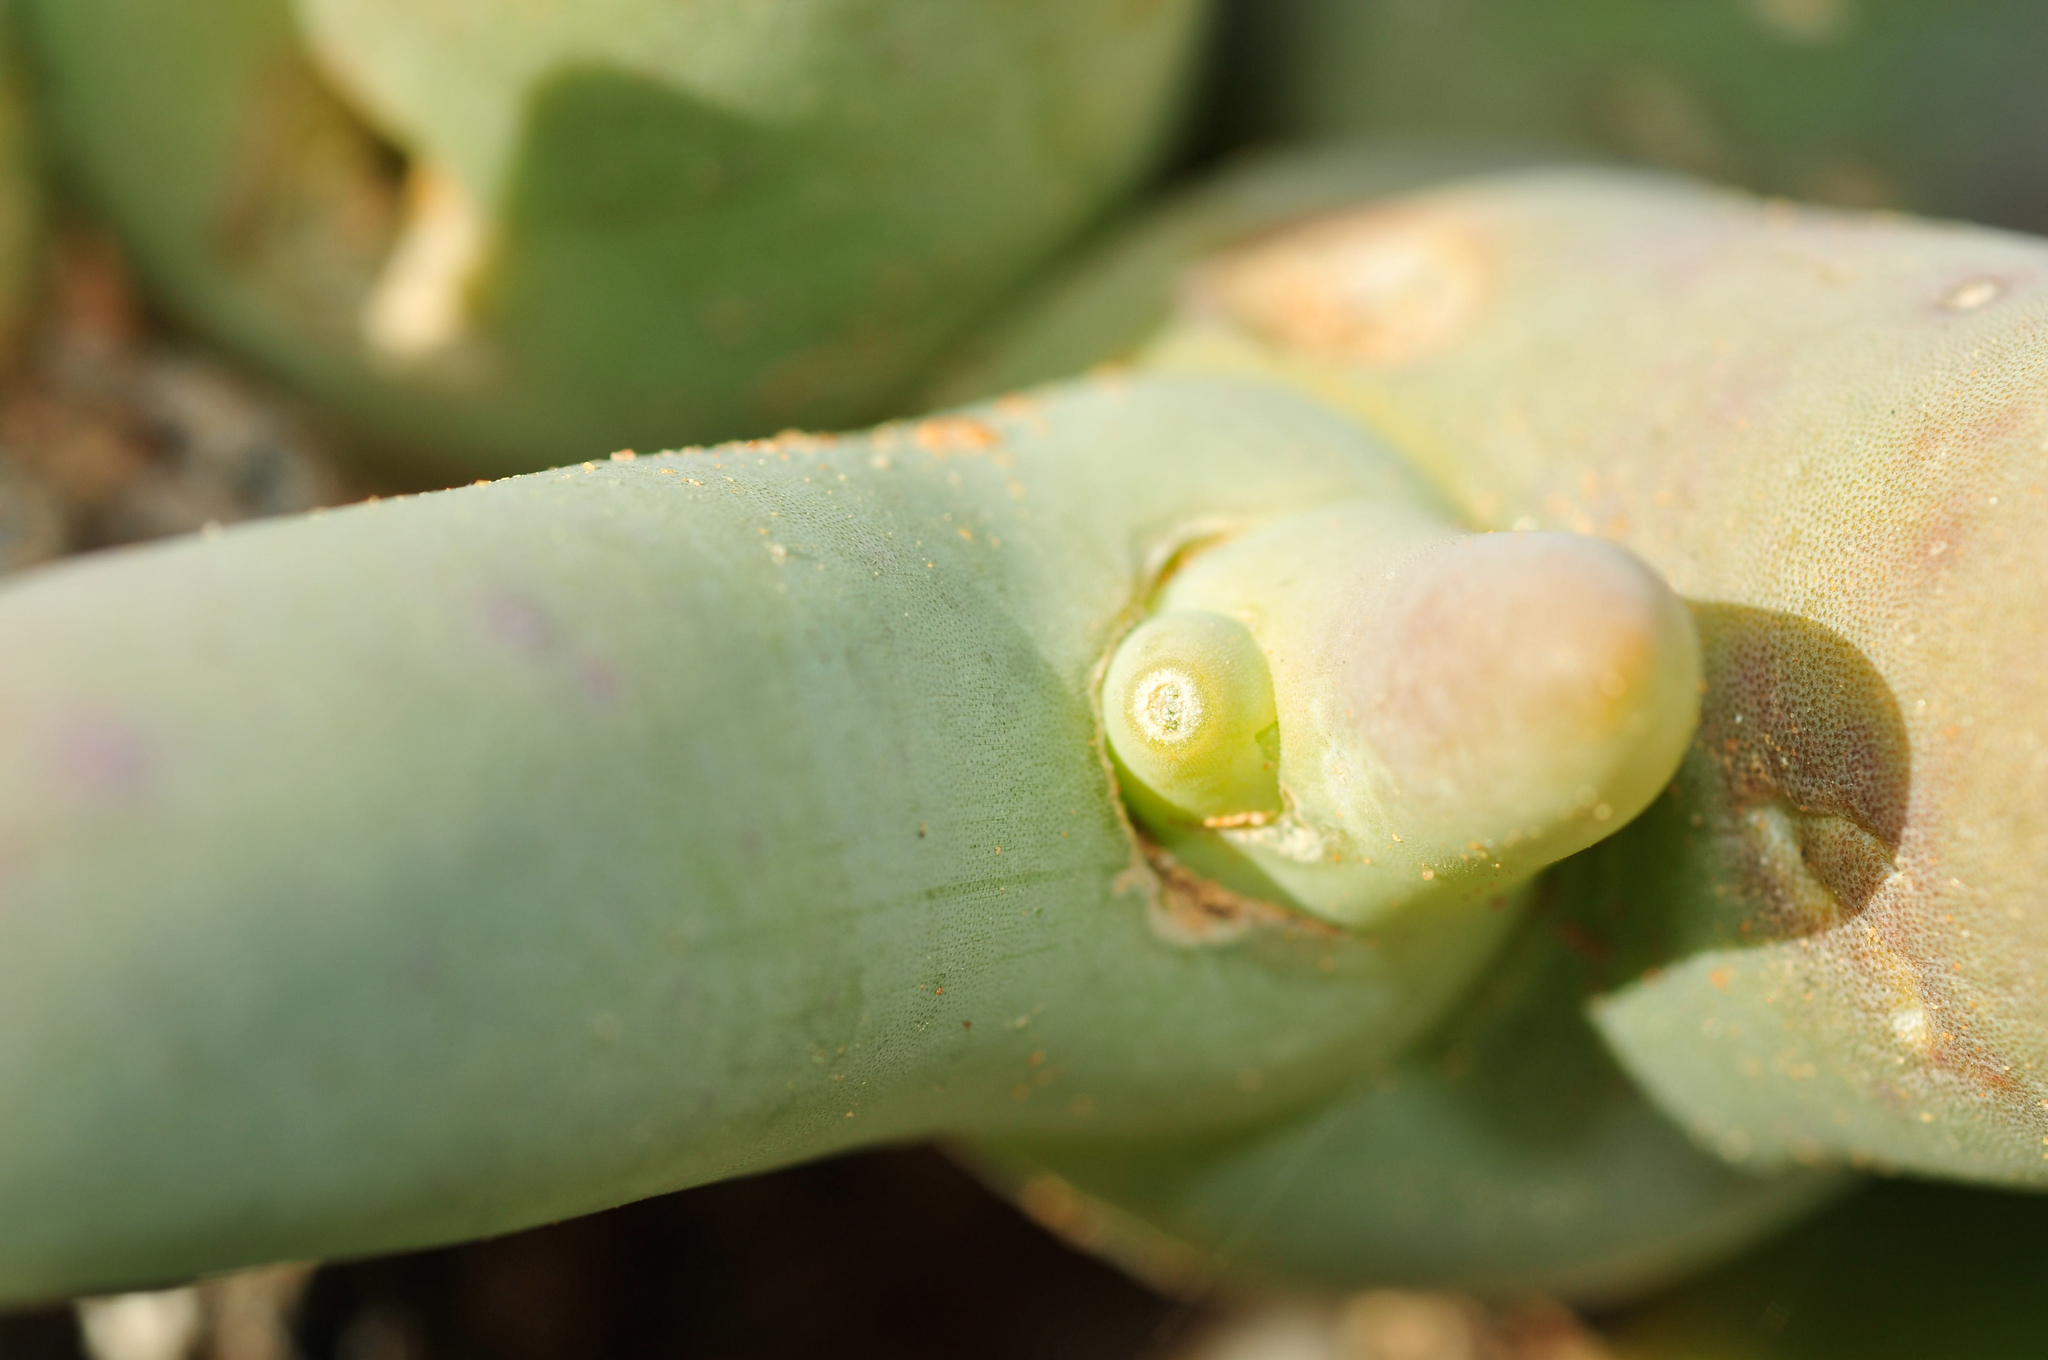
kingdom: Plantae
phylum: Tracheophyta
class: Magnoliopsida
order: Caryophyllales
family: Aizoaceae
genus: Mesembryanthemum
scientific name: Mesembryanthemum digitatum
